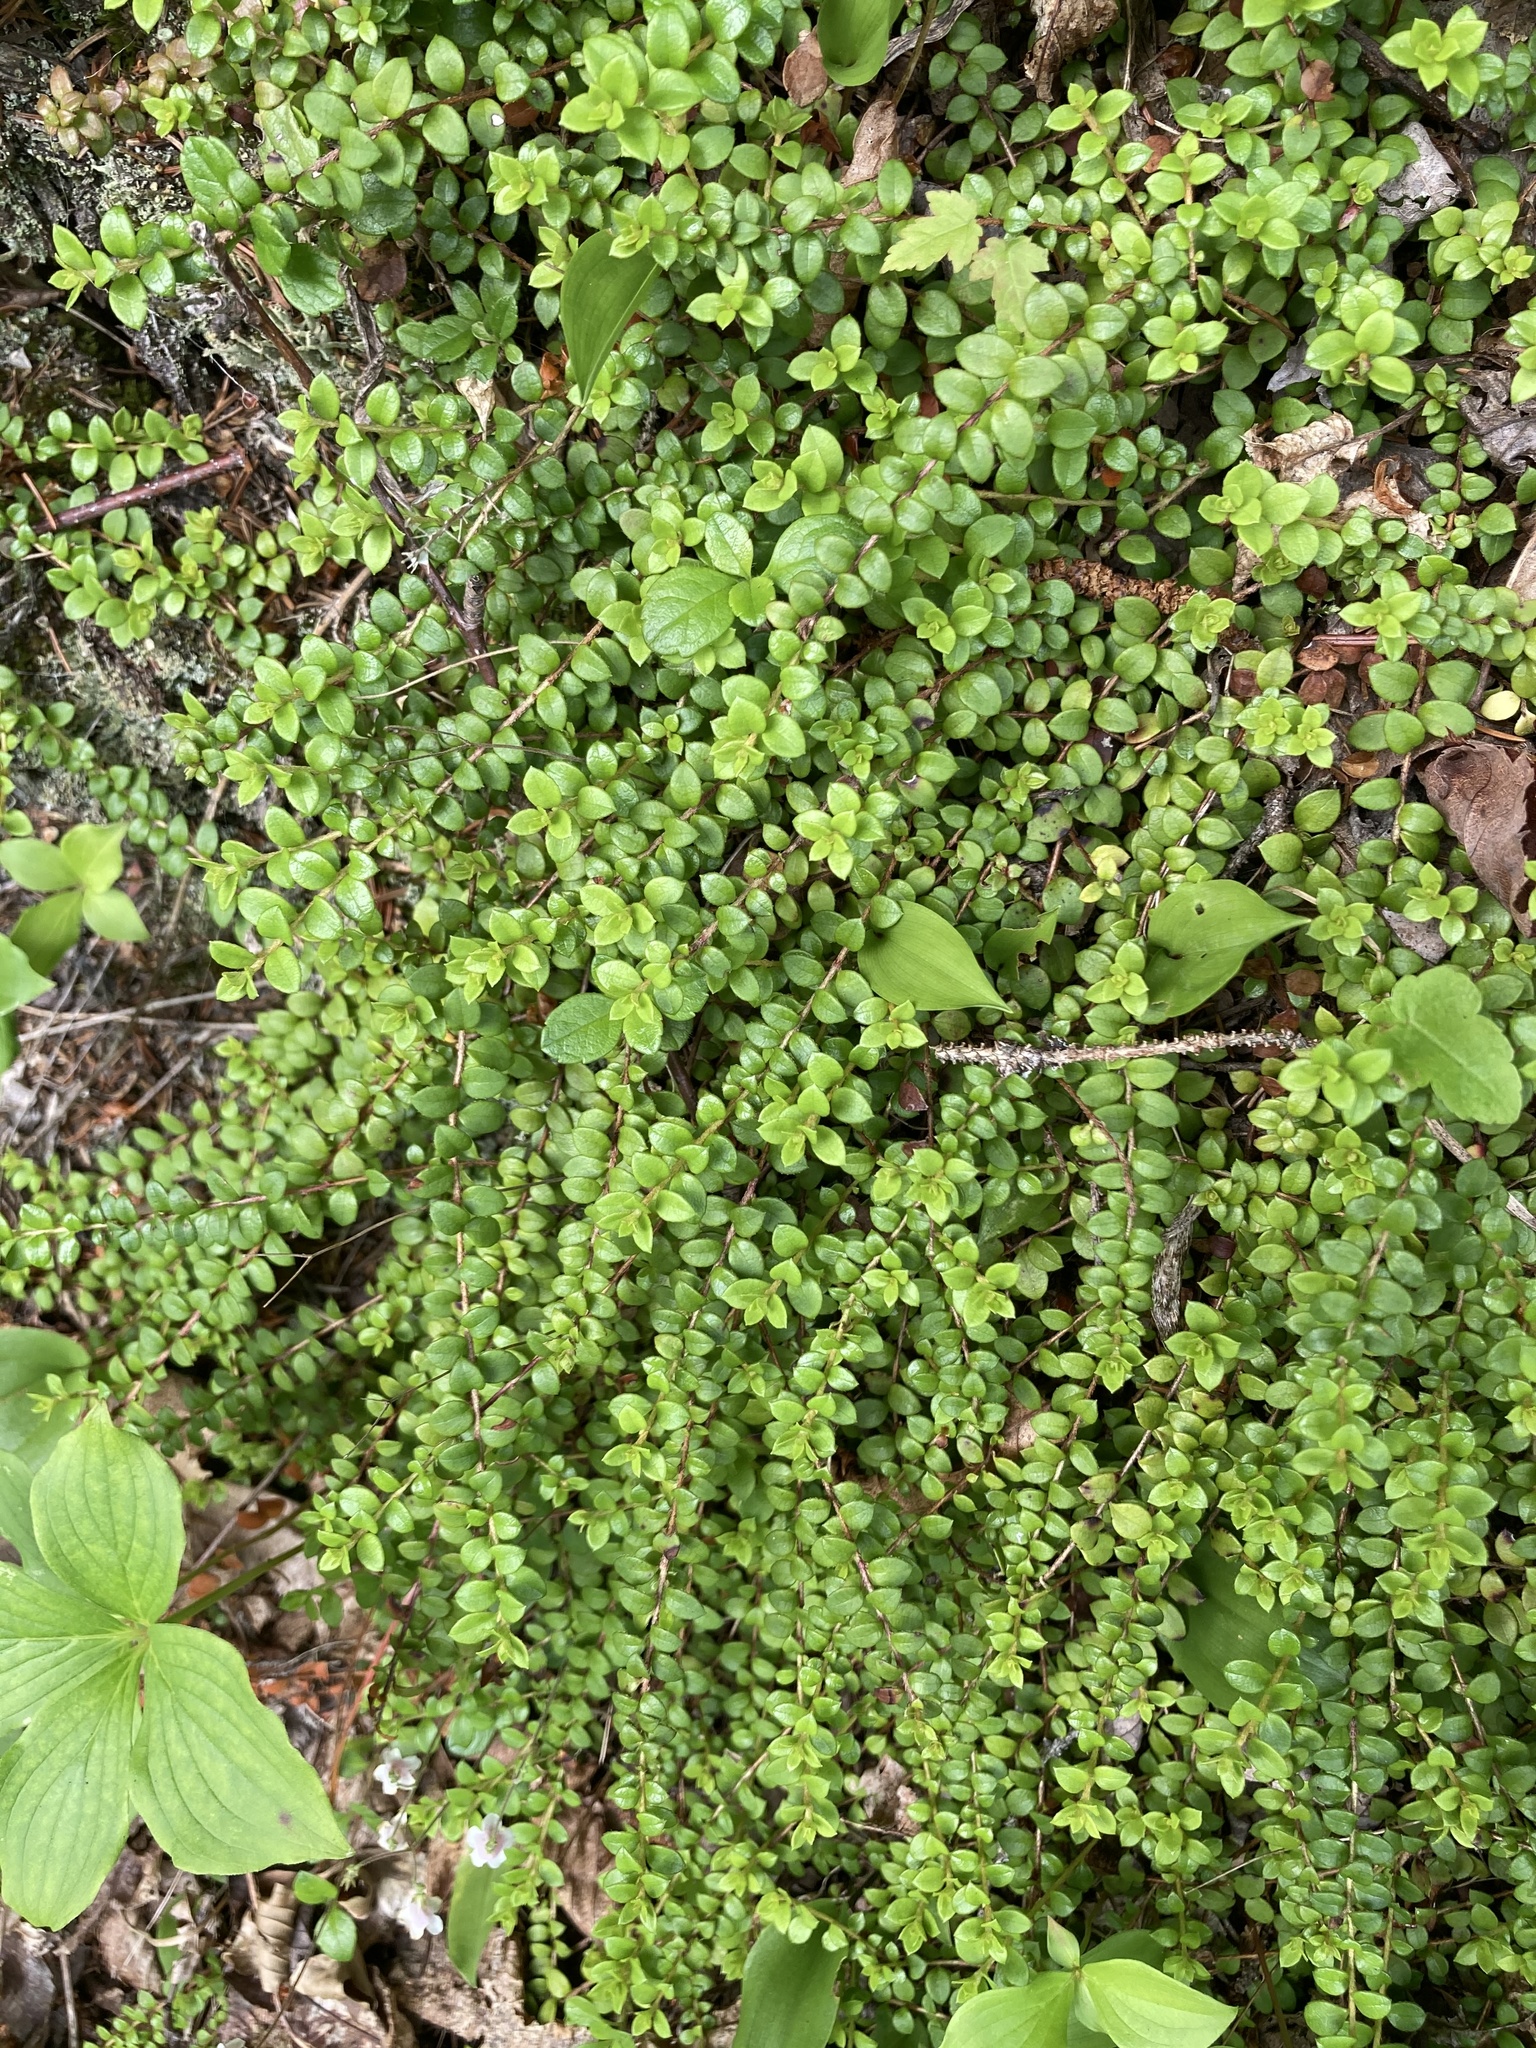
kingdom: Plantae
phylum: Tracheophyta
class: Magnoliopsida
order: Ericales
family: Ericaceae
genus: Gaultheria
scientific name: Gaultheria hispidula
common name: Cancer wintergreen
